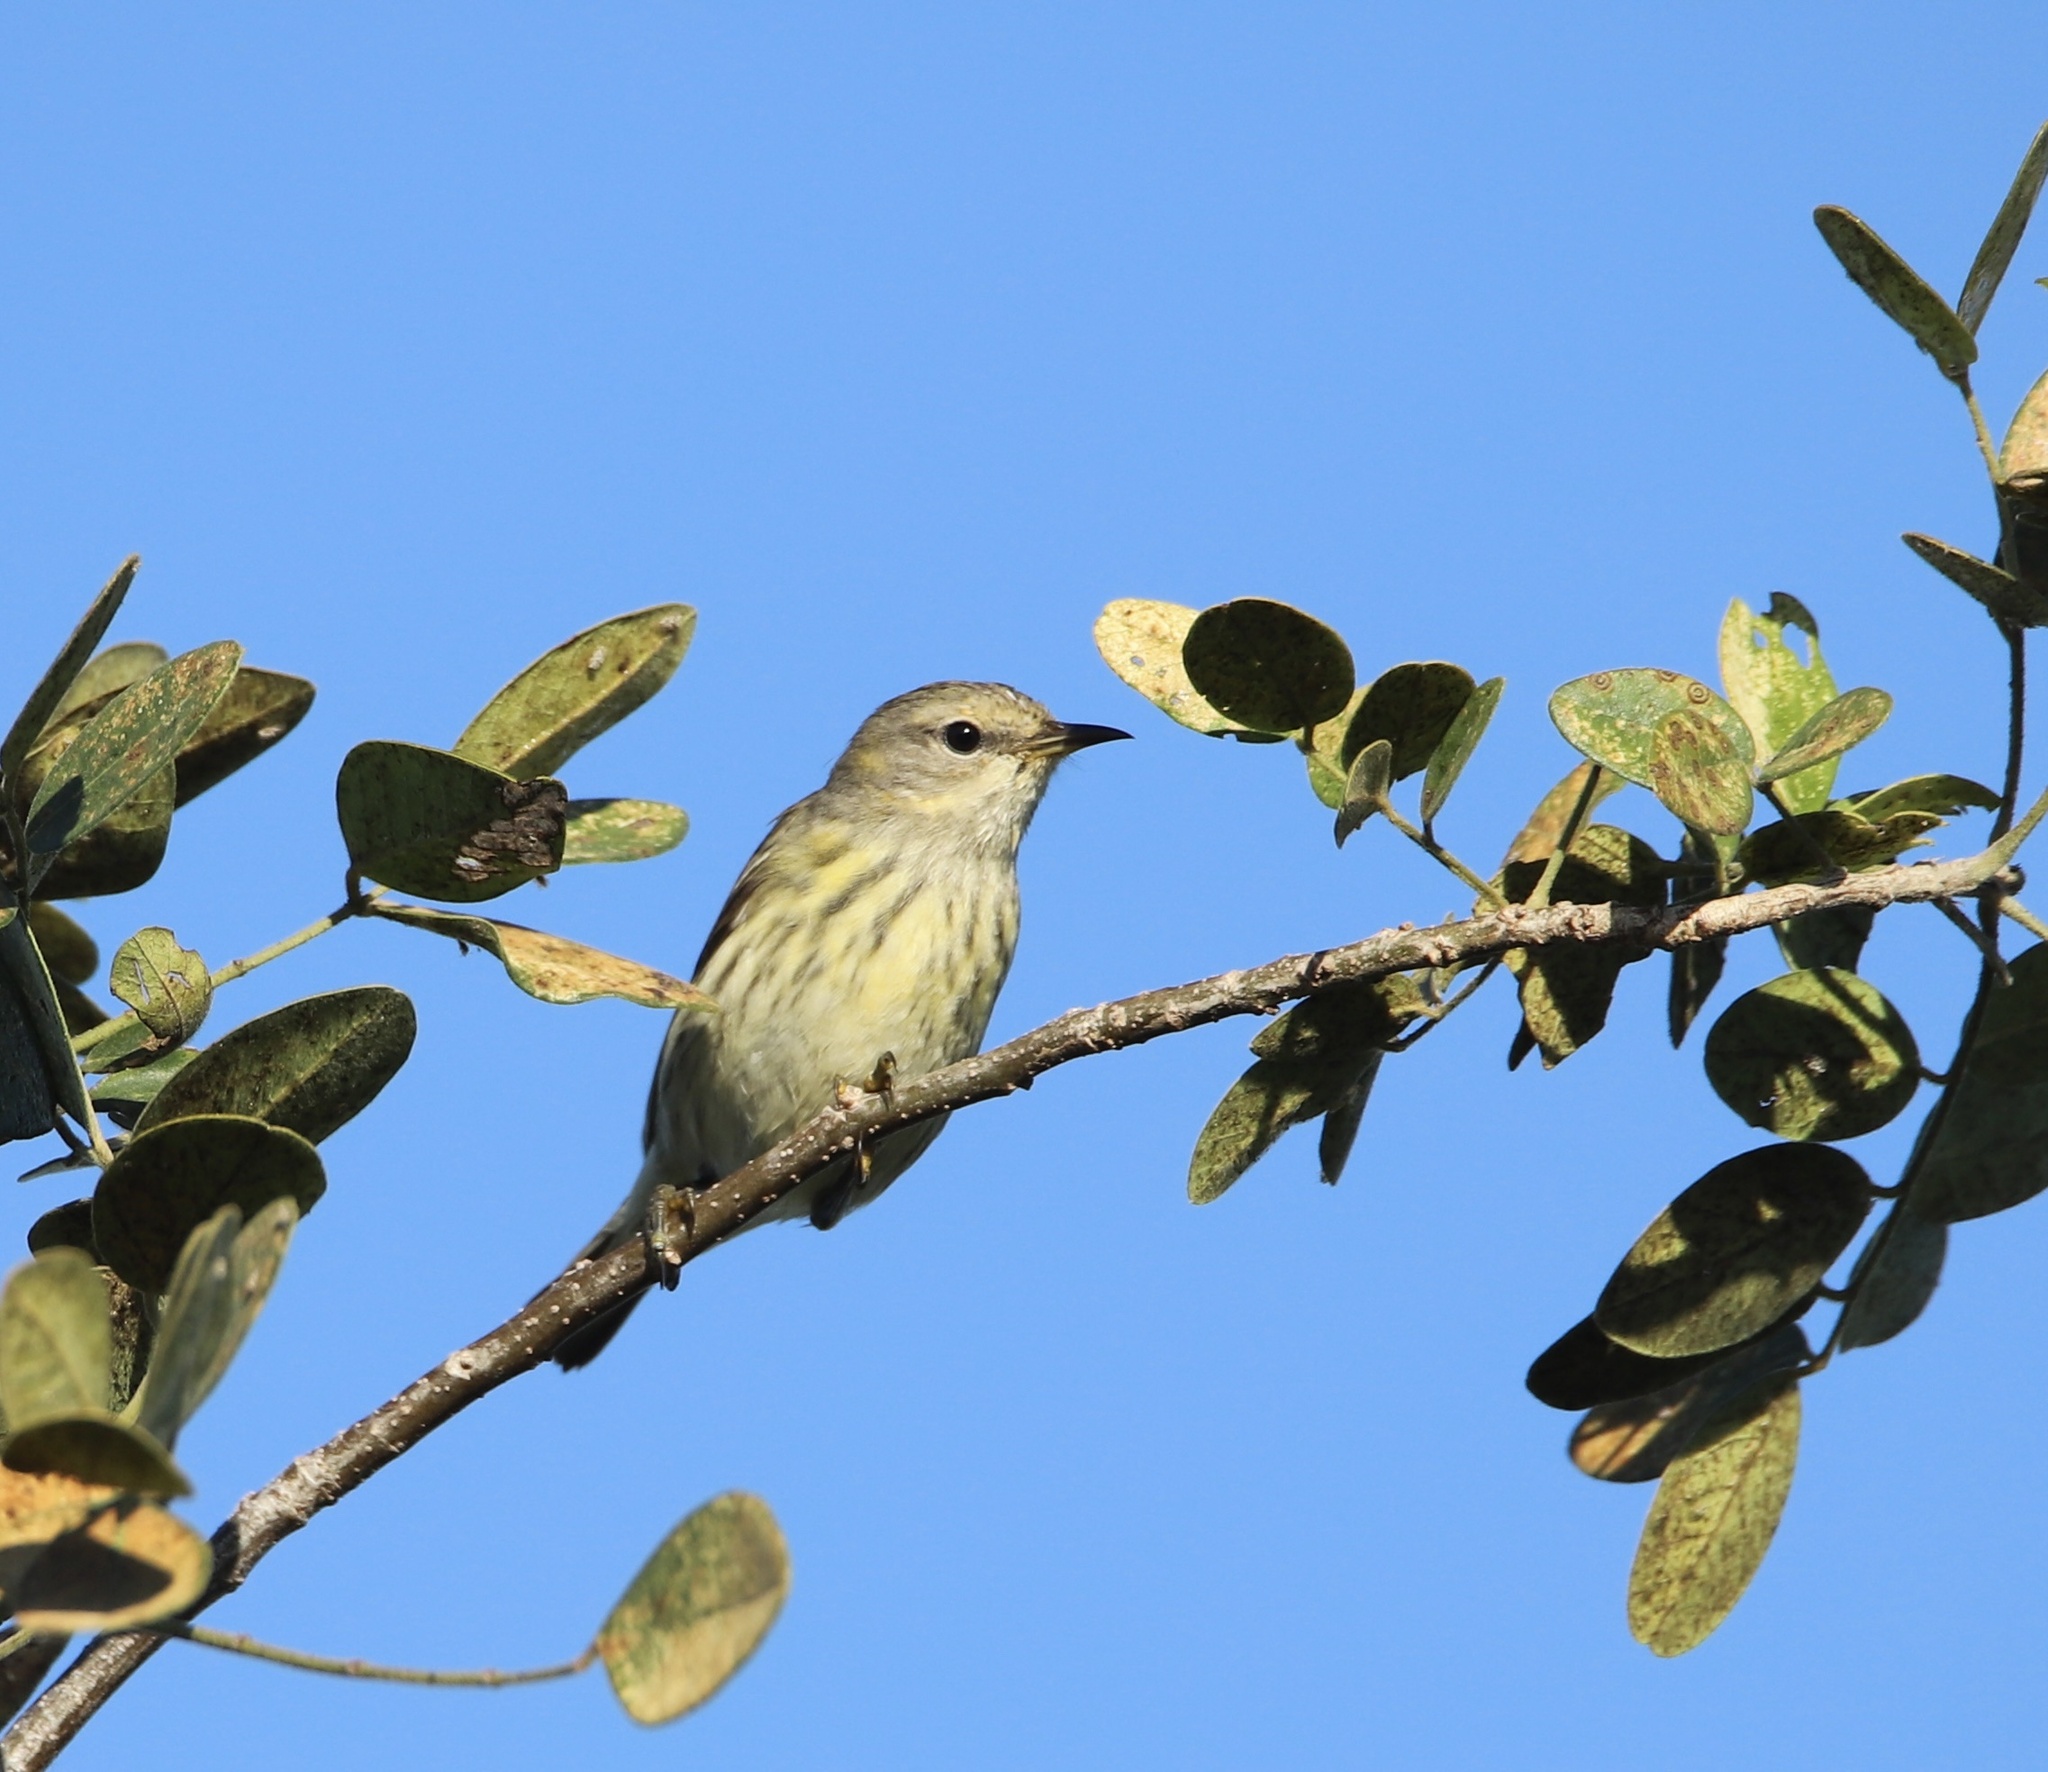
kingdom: Animalia
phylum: Chordata
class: Aves
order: Passeriformes
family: Parulidae
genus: Setophaga
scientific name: Setophaga tigrina
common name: Cape may warbler
